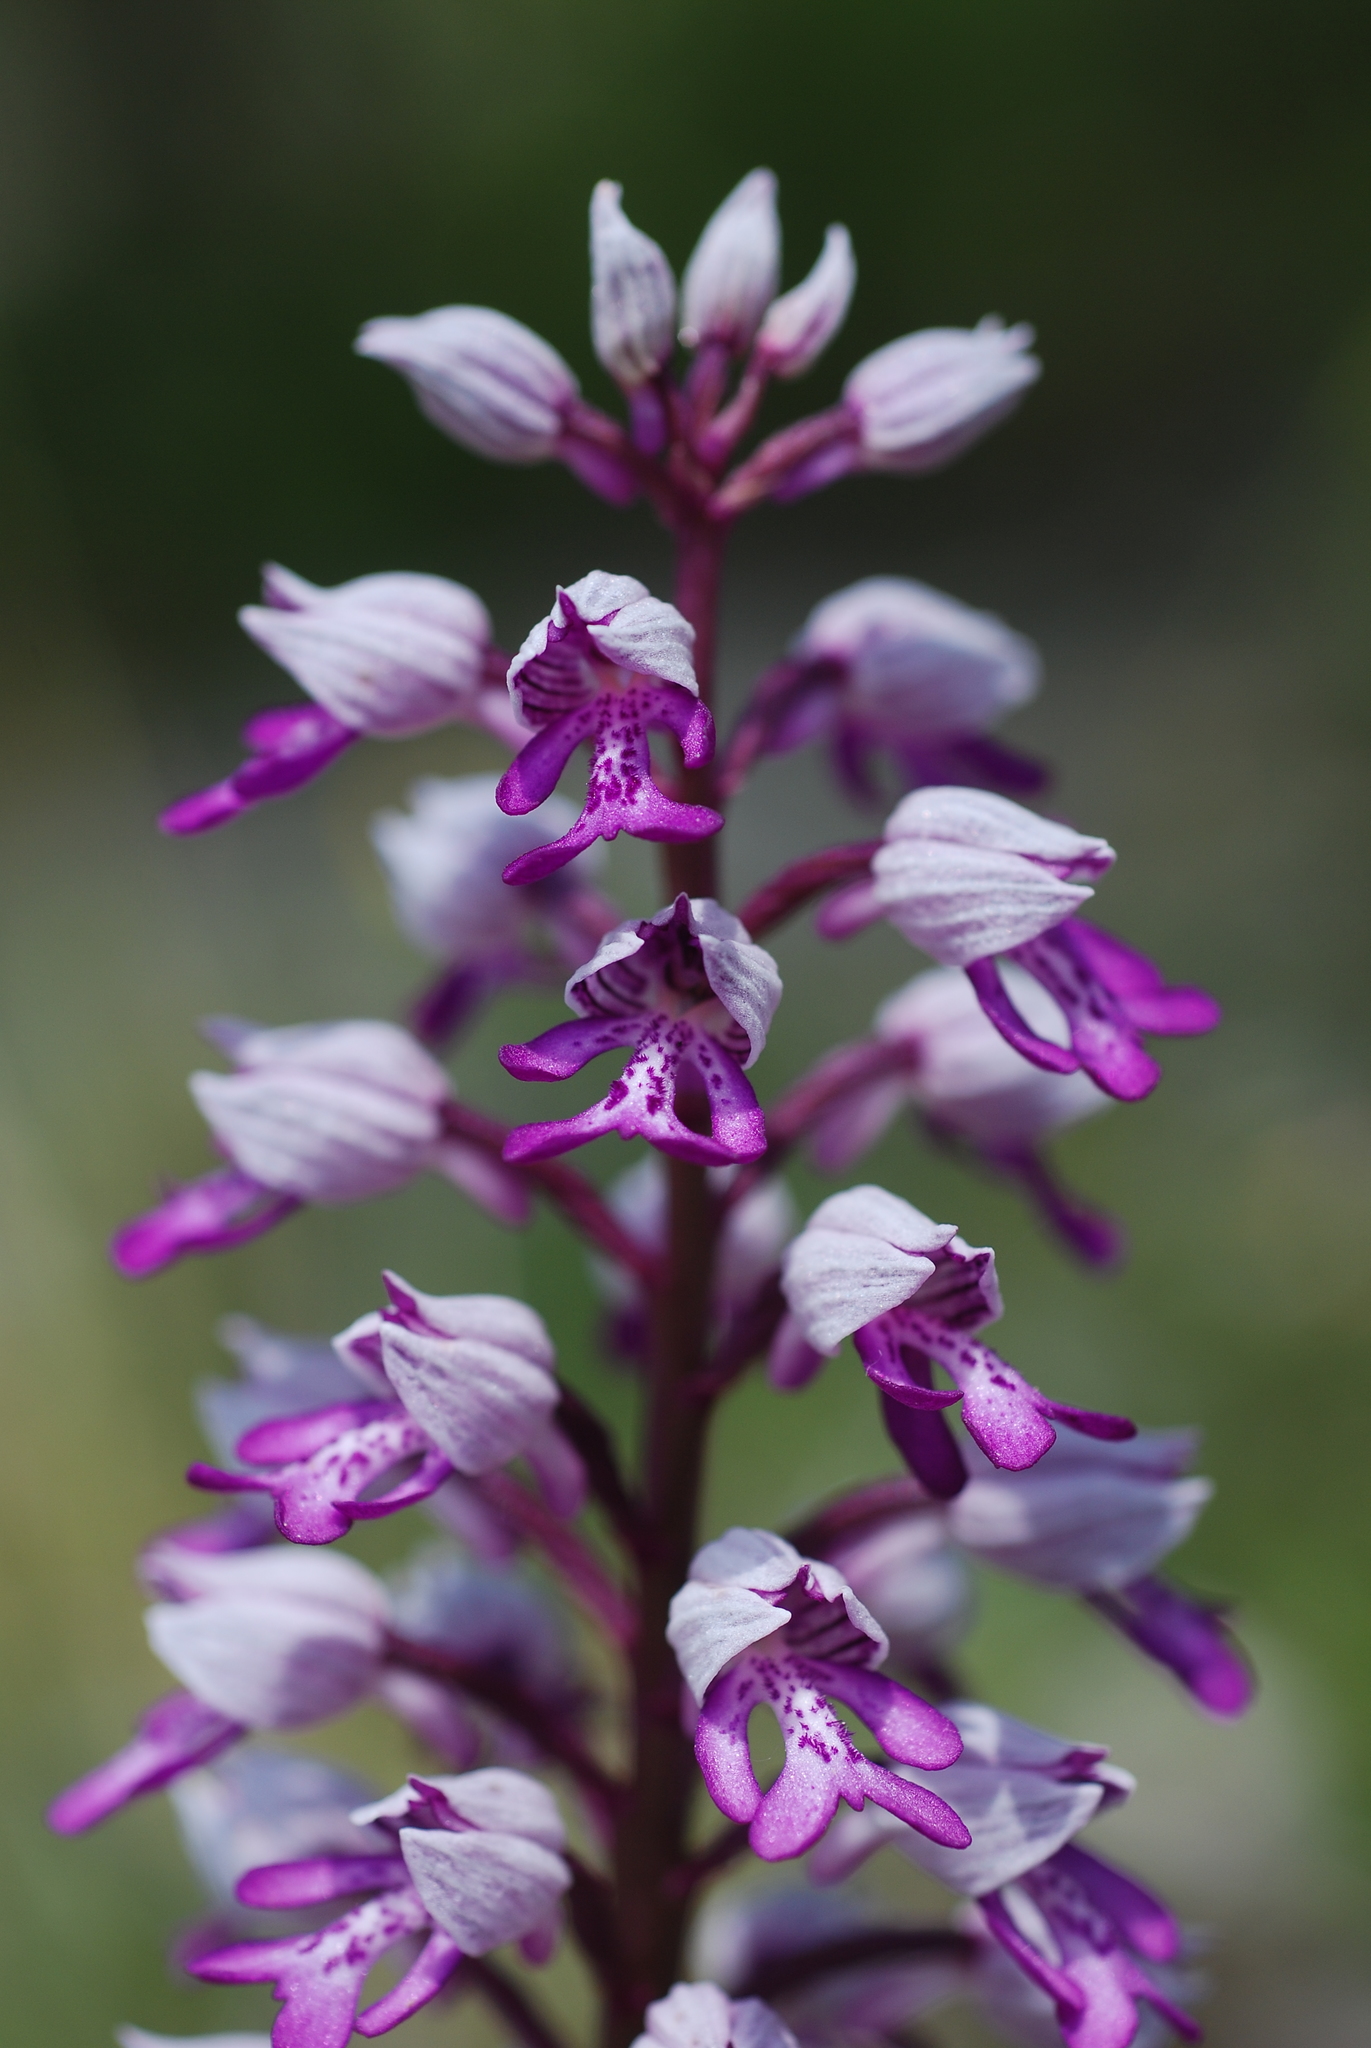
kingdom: Plantae
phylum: Tracheophyta
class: Liliopsida
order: Asparagales
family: Orchidaceae
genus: Orchis
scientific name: Orchis militaris
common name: Military orchid
